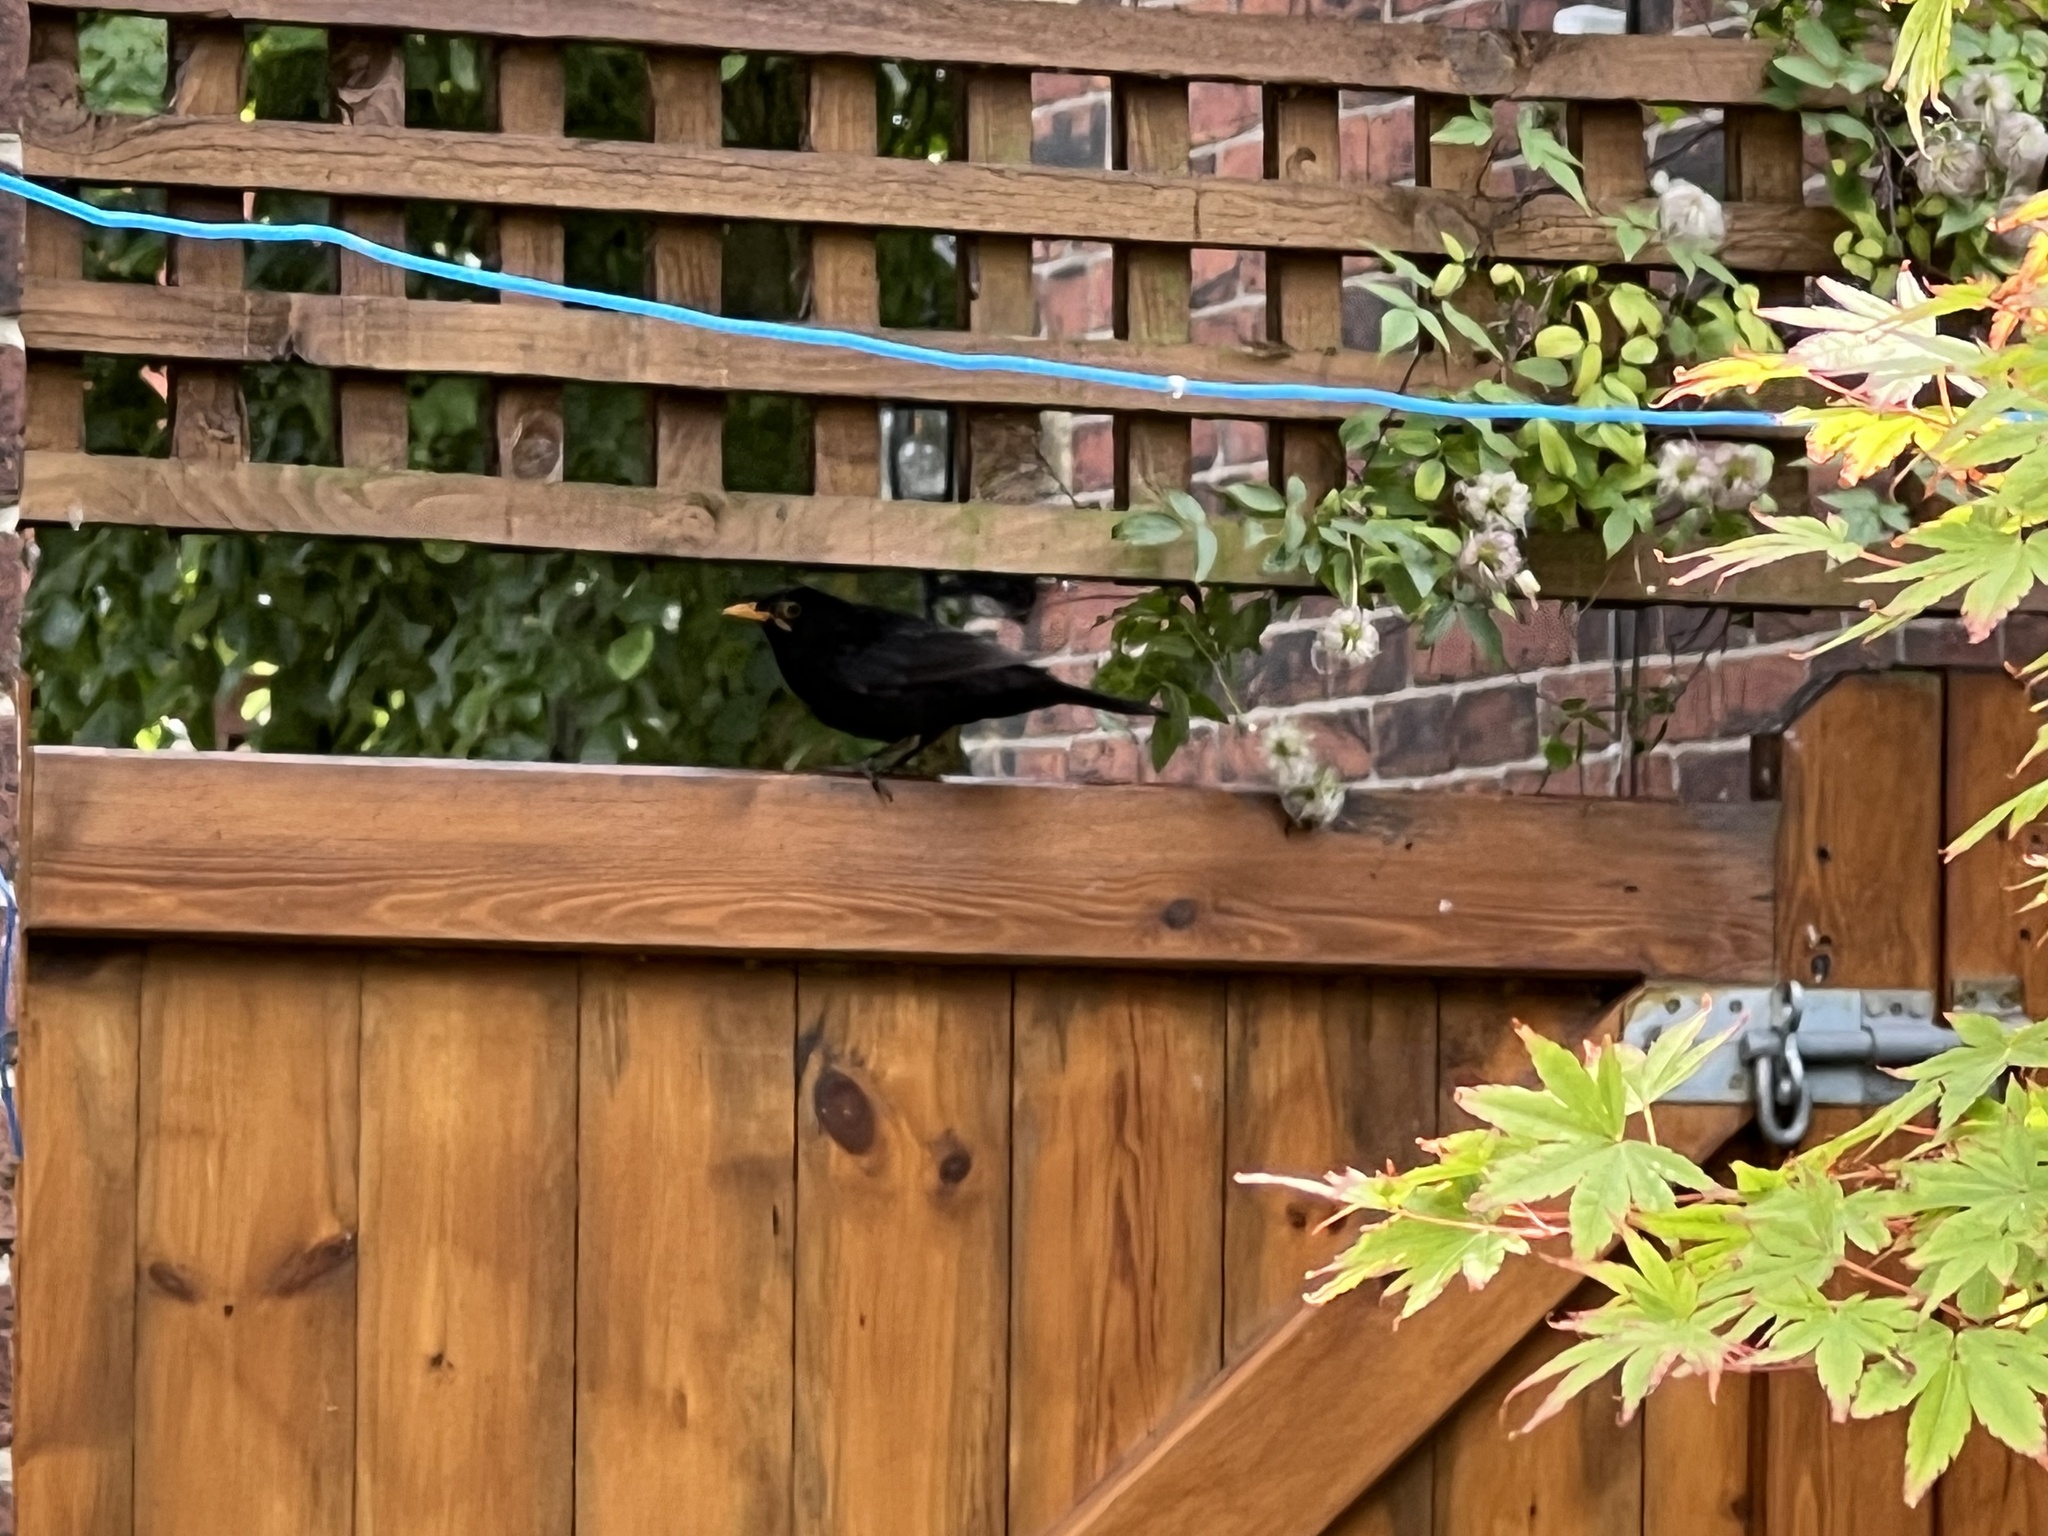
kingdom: Animalia
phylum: Chordata
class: Aves
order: Passeriformes
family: Turdidae
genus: Turdus
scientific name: Turdus merula
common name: Common blackbird
